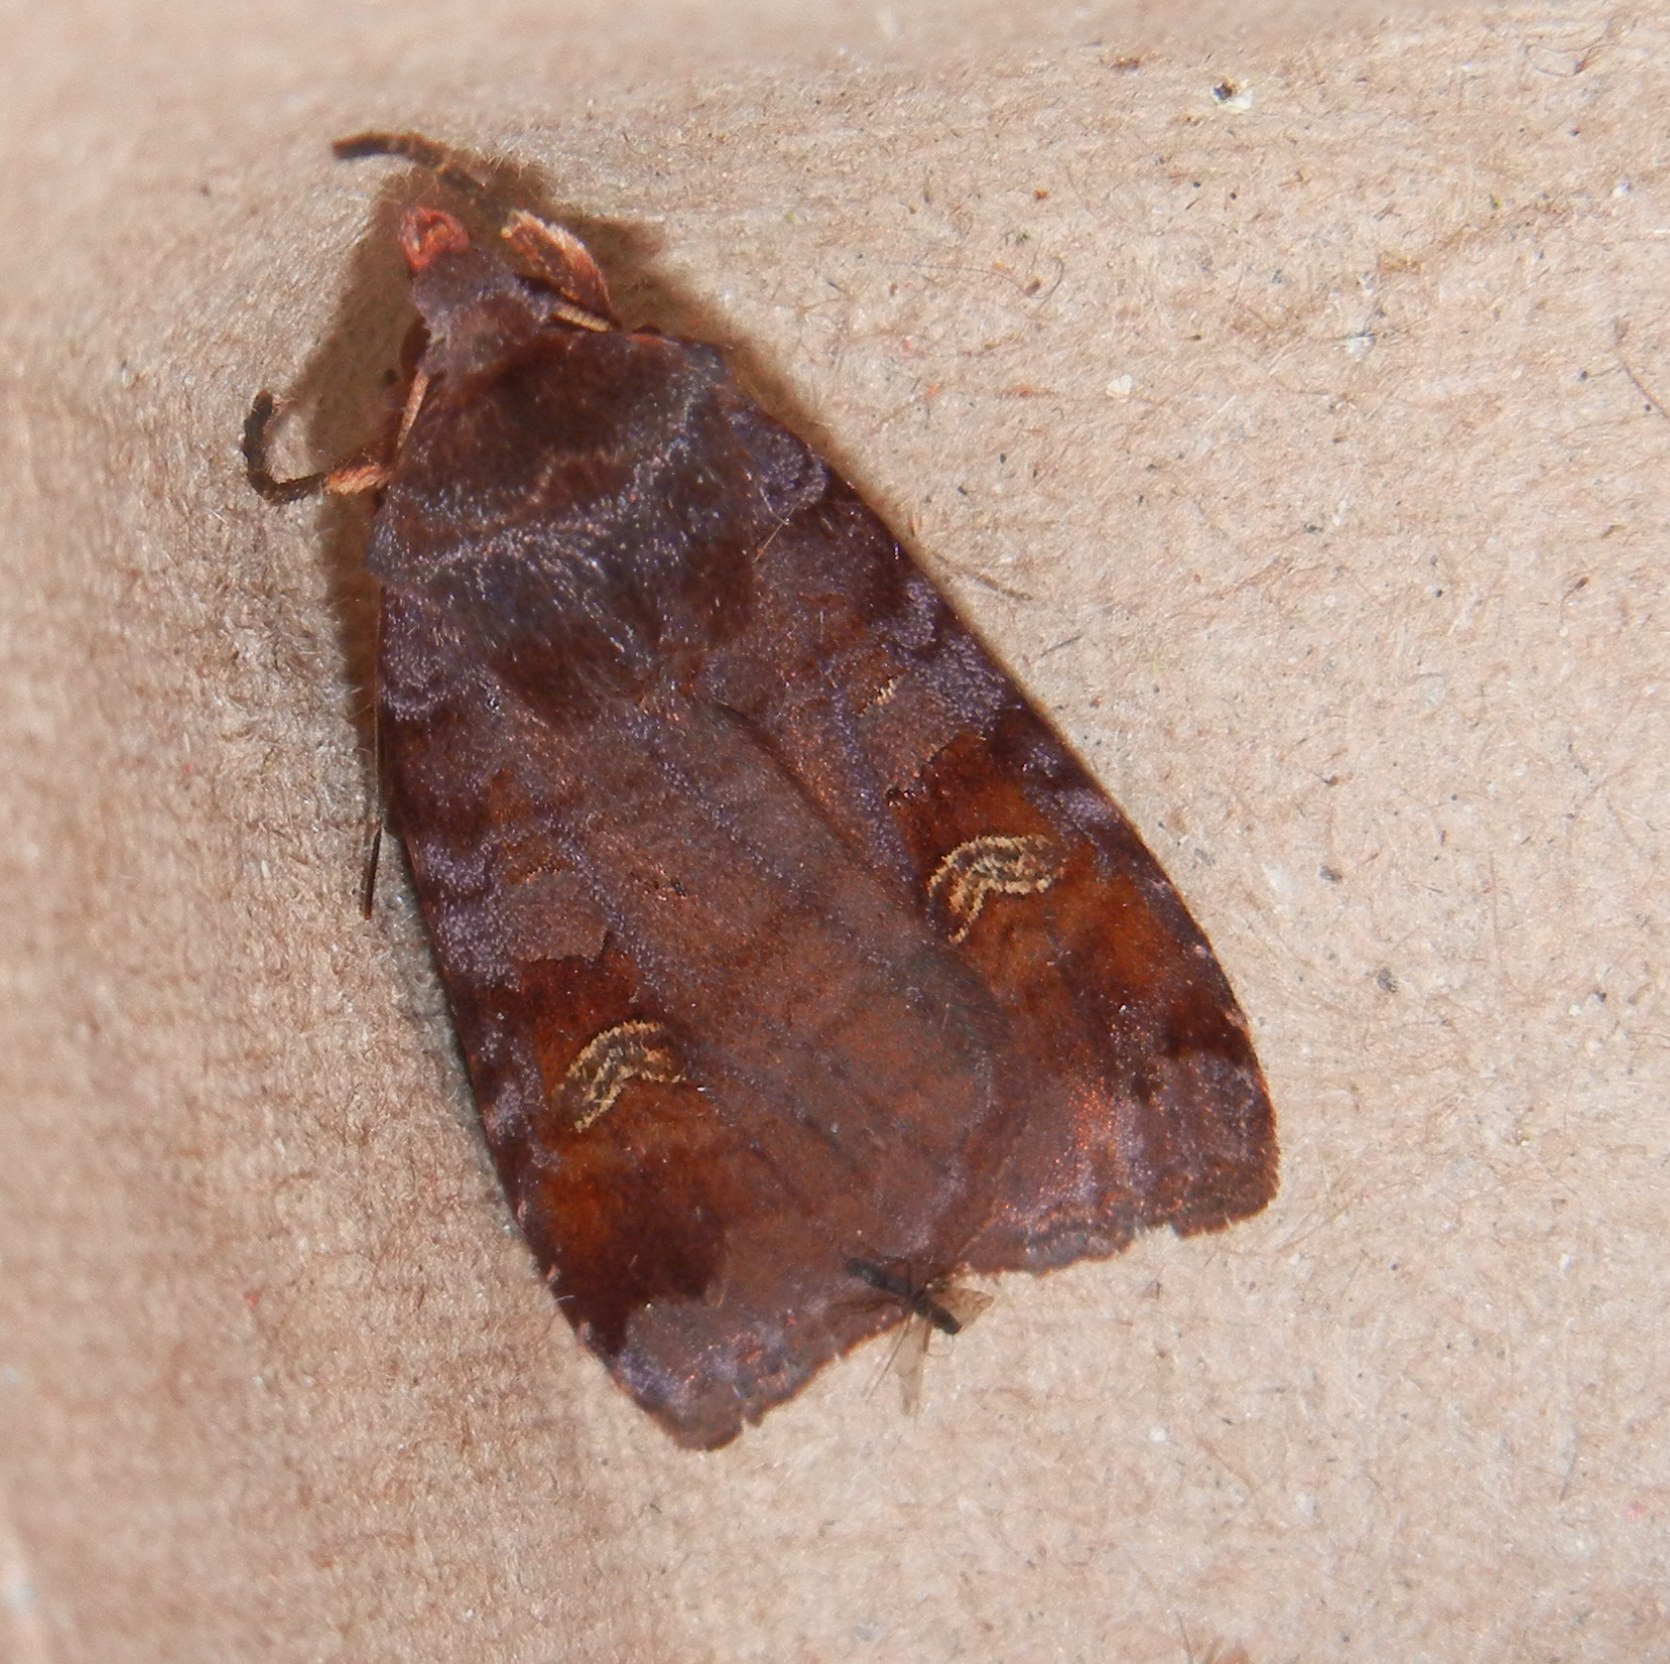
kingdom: Animalia
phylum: Arthropoda
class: Insecta
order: Lepidoptera
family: Noctuidae
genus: Diarsia
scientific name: Diarsia brunnea
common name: Purple clay
